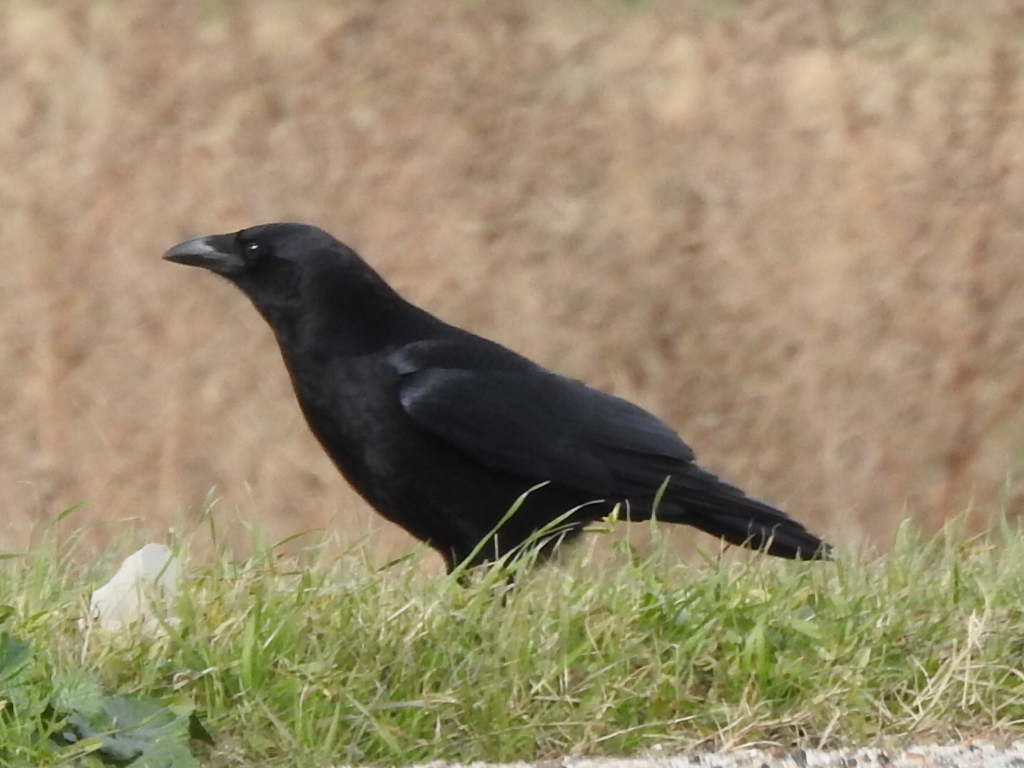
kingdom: Animalia
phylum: Chordata
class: Aves
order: Passeriformes
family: Corvidae
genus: Corvus
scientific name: Corvus brachyrhynchos
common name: American crow
